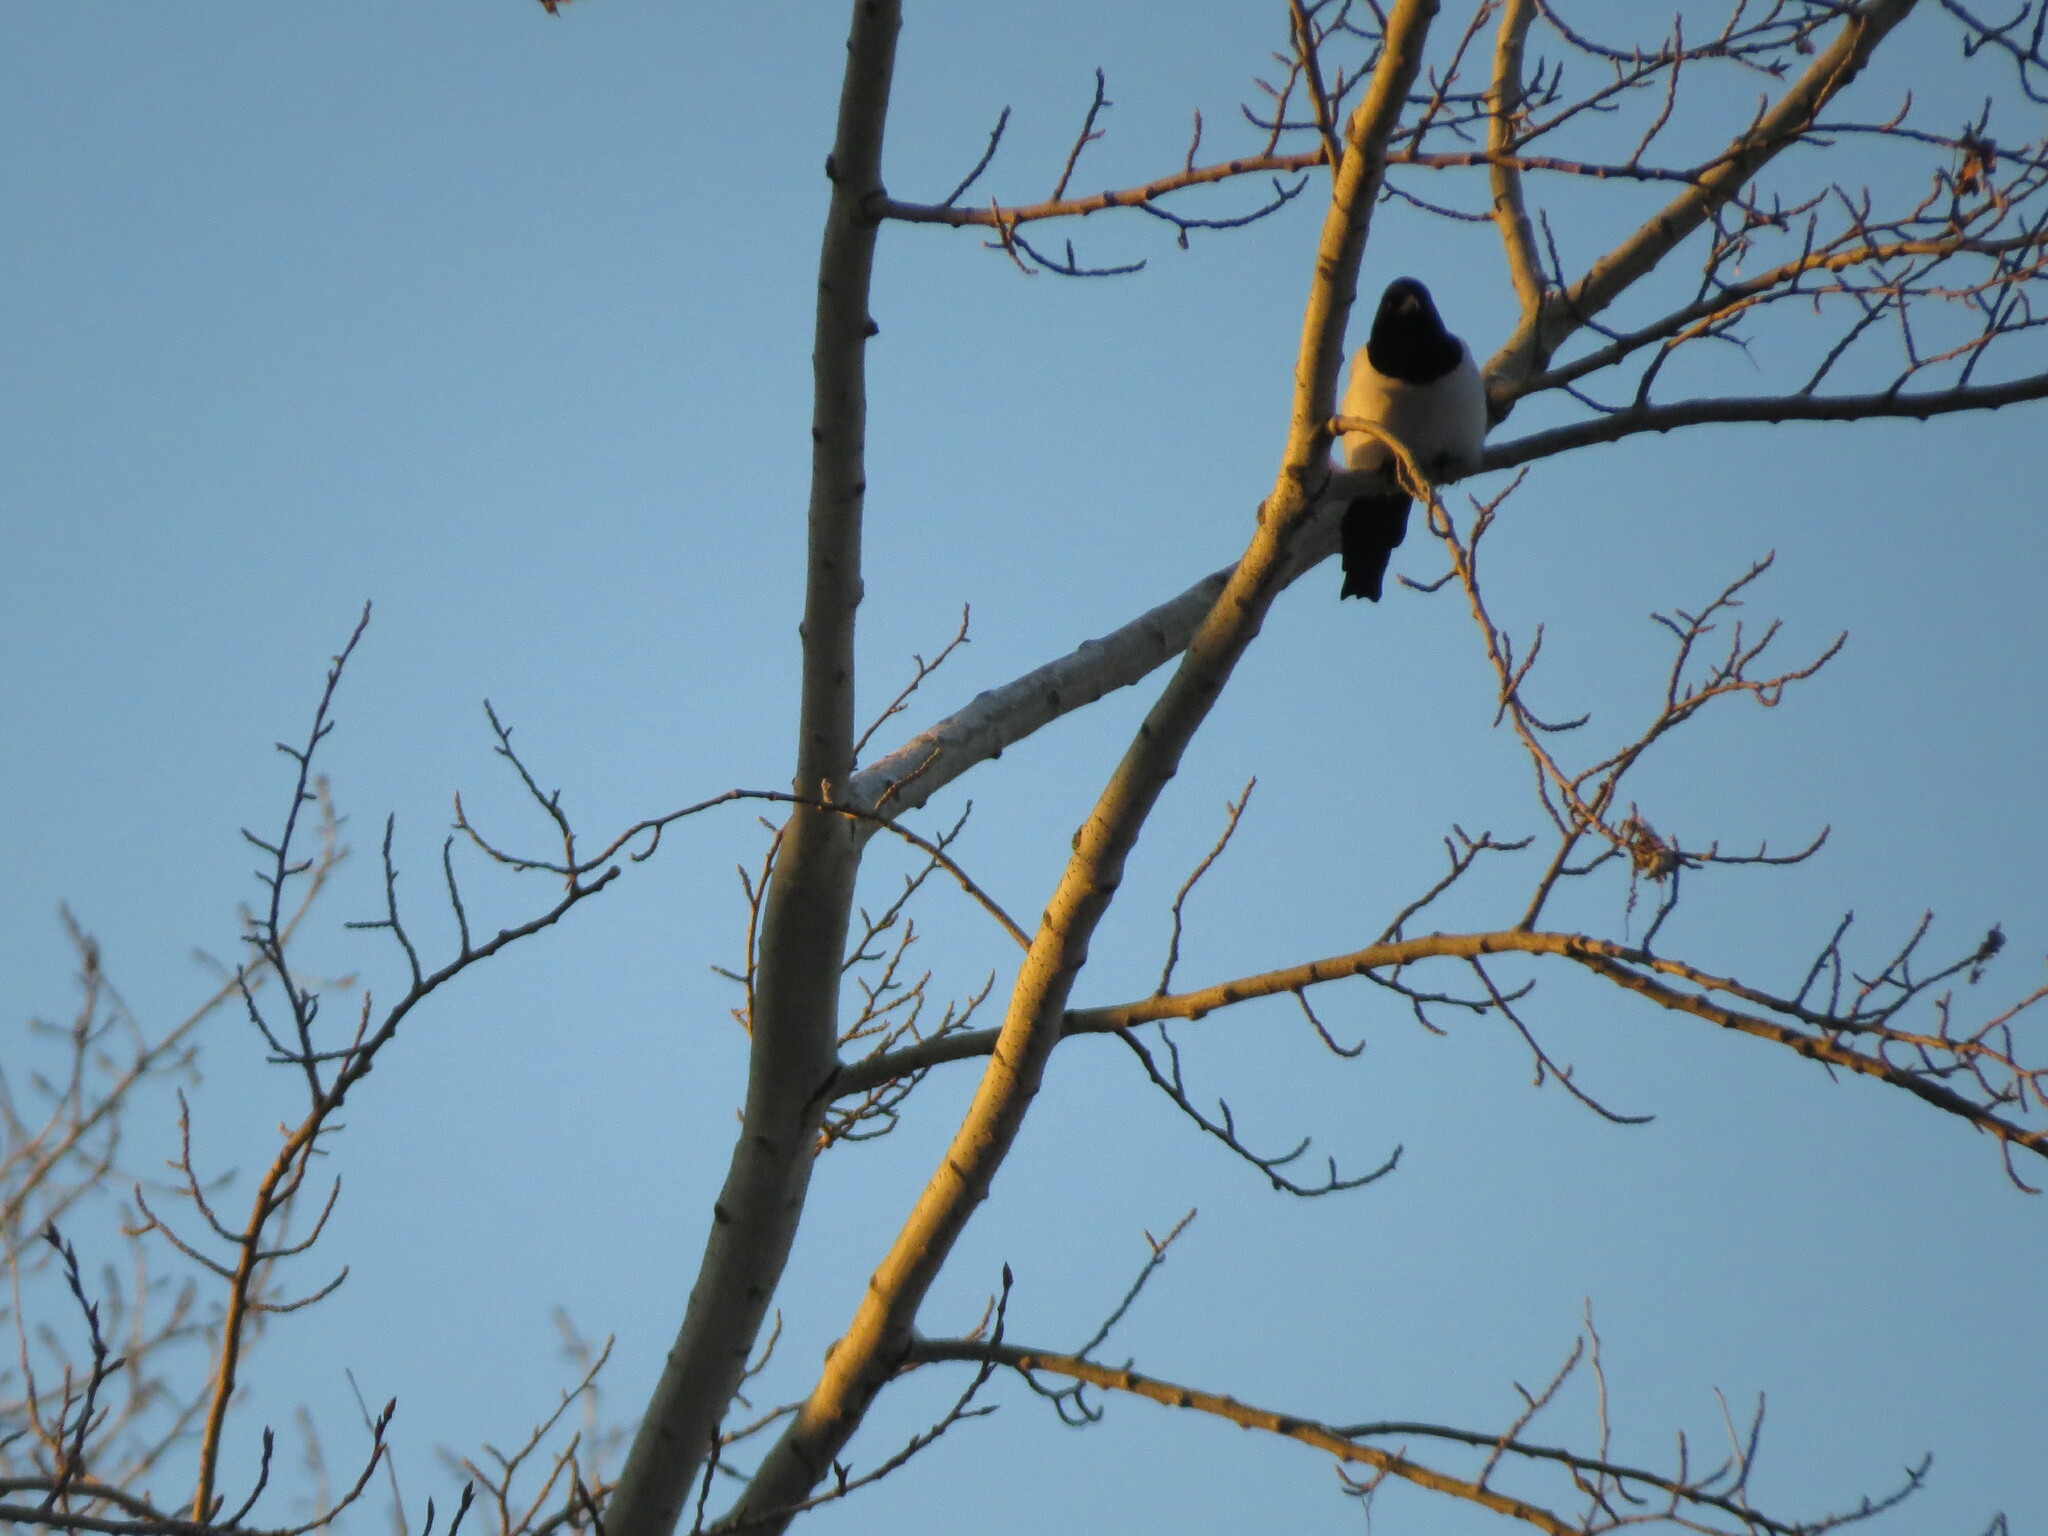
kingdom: Animalia
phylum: Chordata
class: Aves
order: Passeriformes
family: Corvidae
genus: Pica
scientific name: Pica pica
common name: Eurasian magpie
